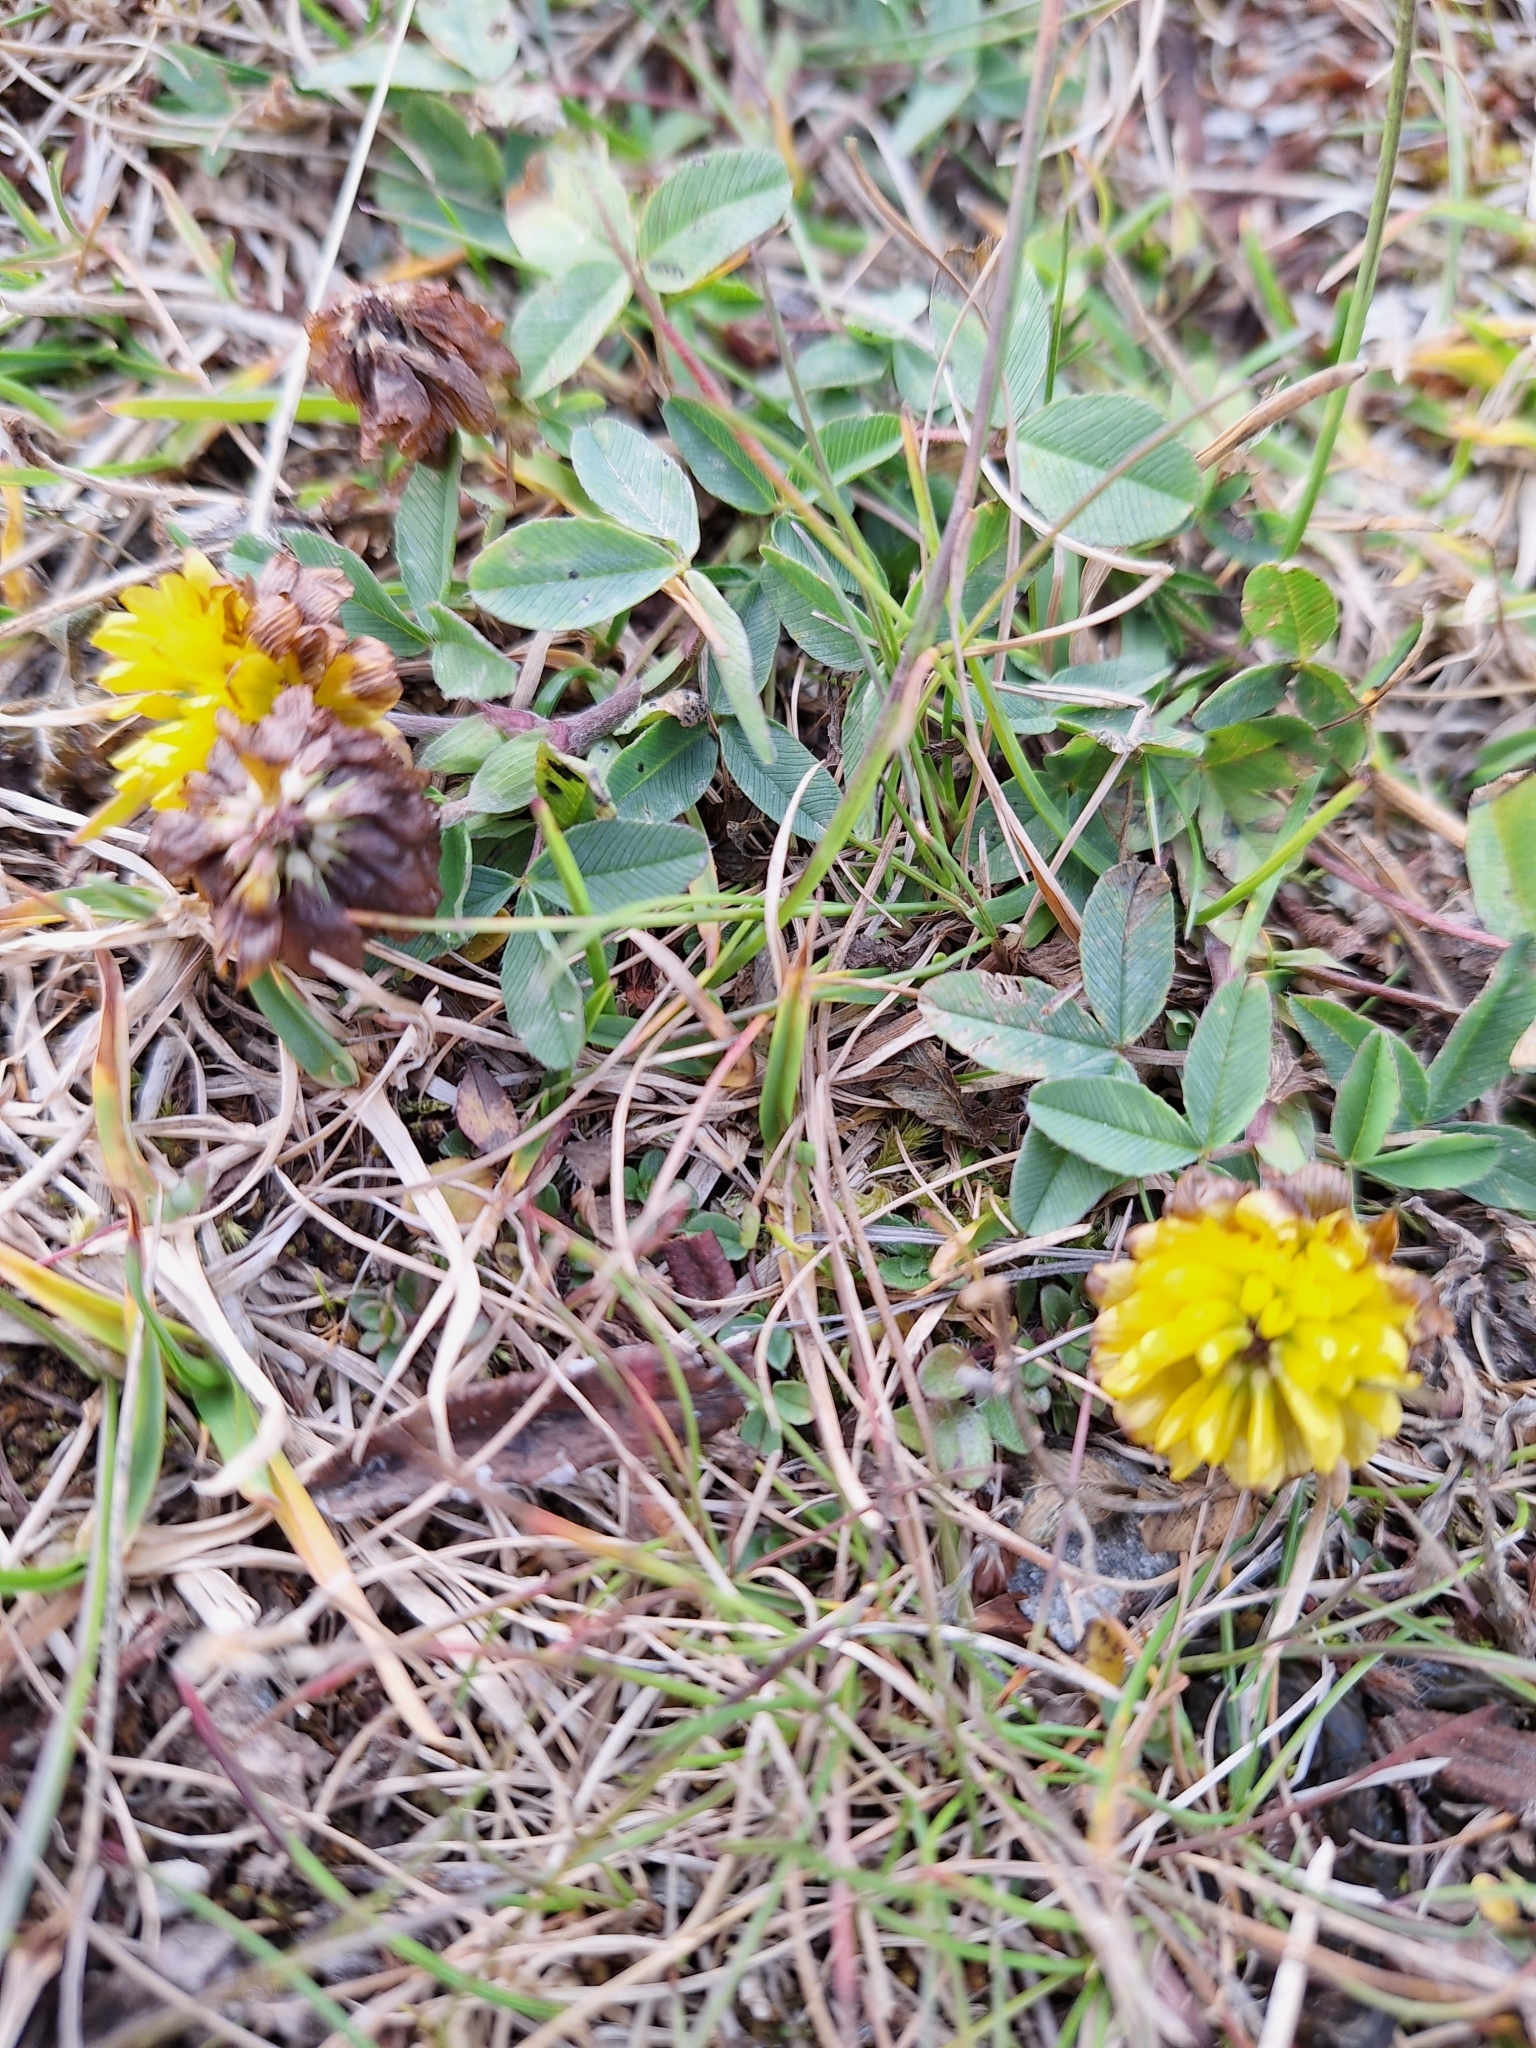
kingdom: Plantae
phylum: Tracheophyta
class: Magnoliopsida
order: Fabales
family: Fabaceae
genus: Trifolium
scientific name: Trifolium badium
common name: Brown clover
